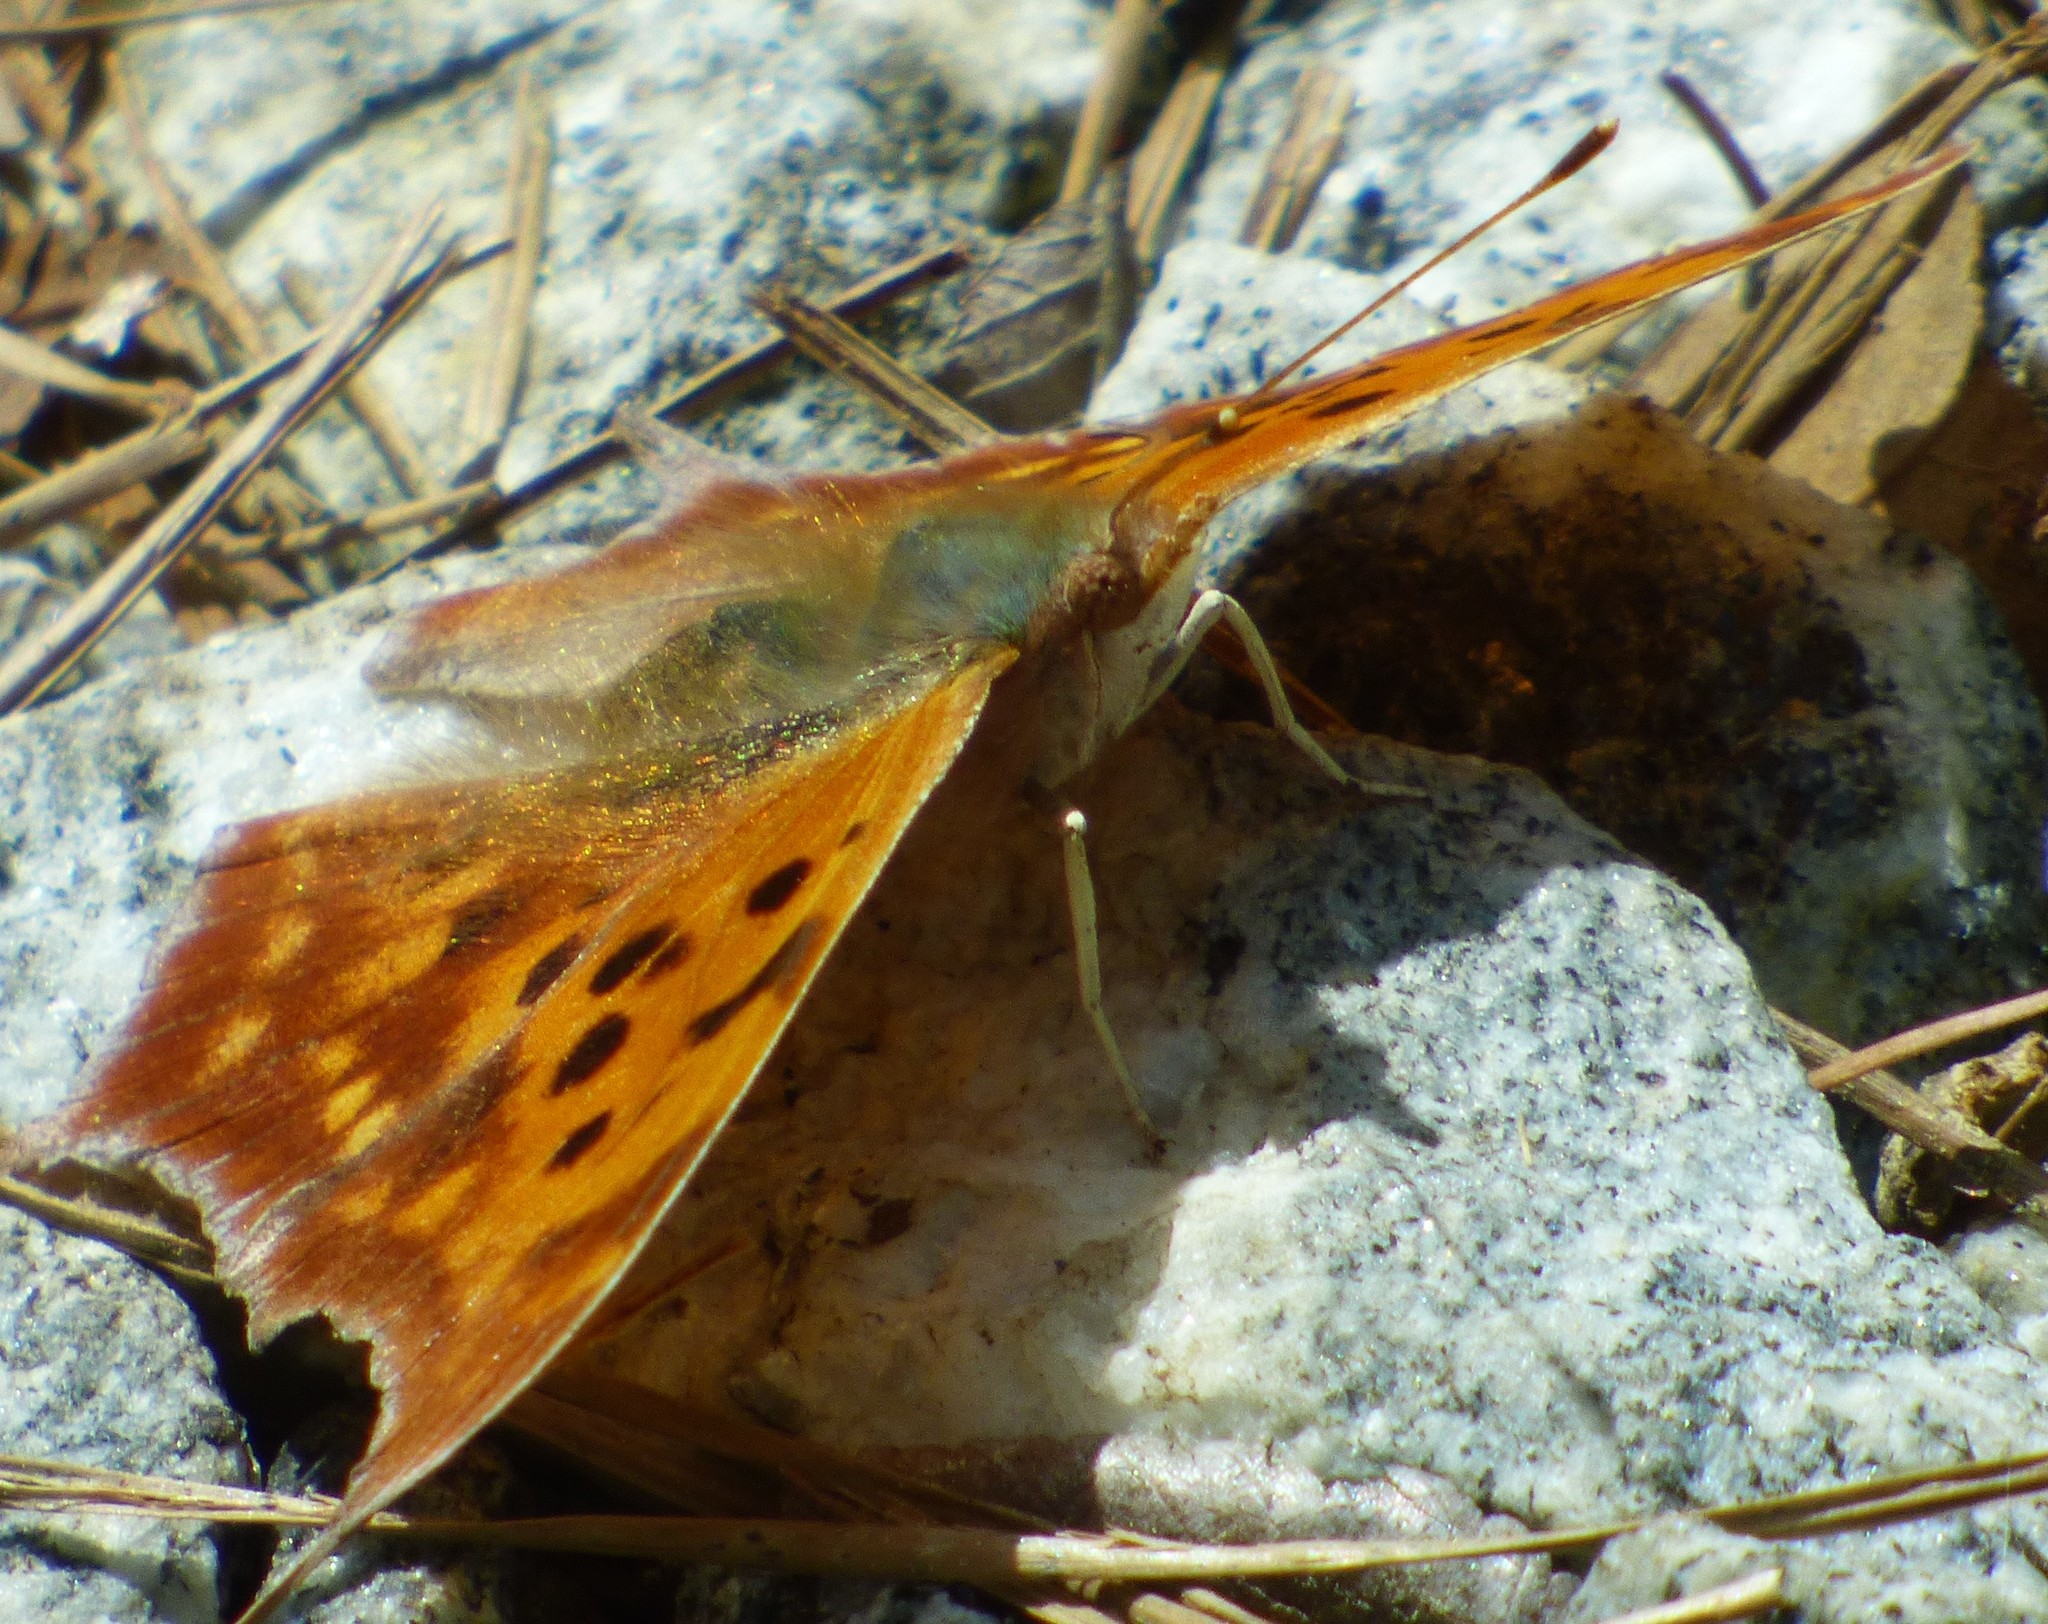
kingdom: Animalia
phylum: Arthropoda
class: Insecta
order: Lepidoptera
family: Nymphalidae
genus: Polygonia
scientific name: Polygonia comma
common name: Eastern comma
